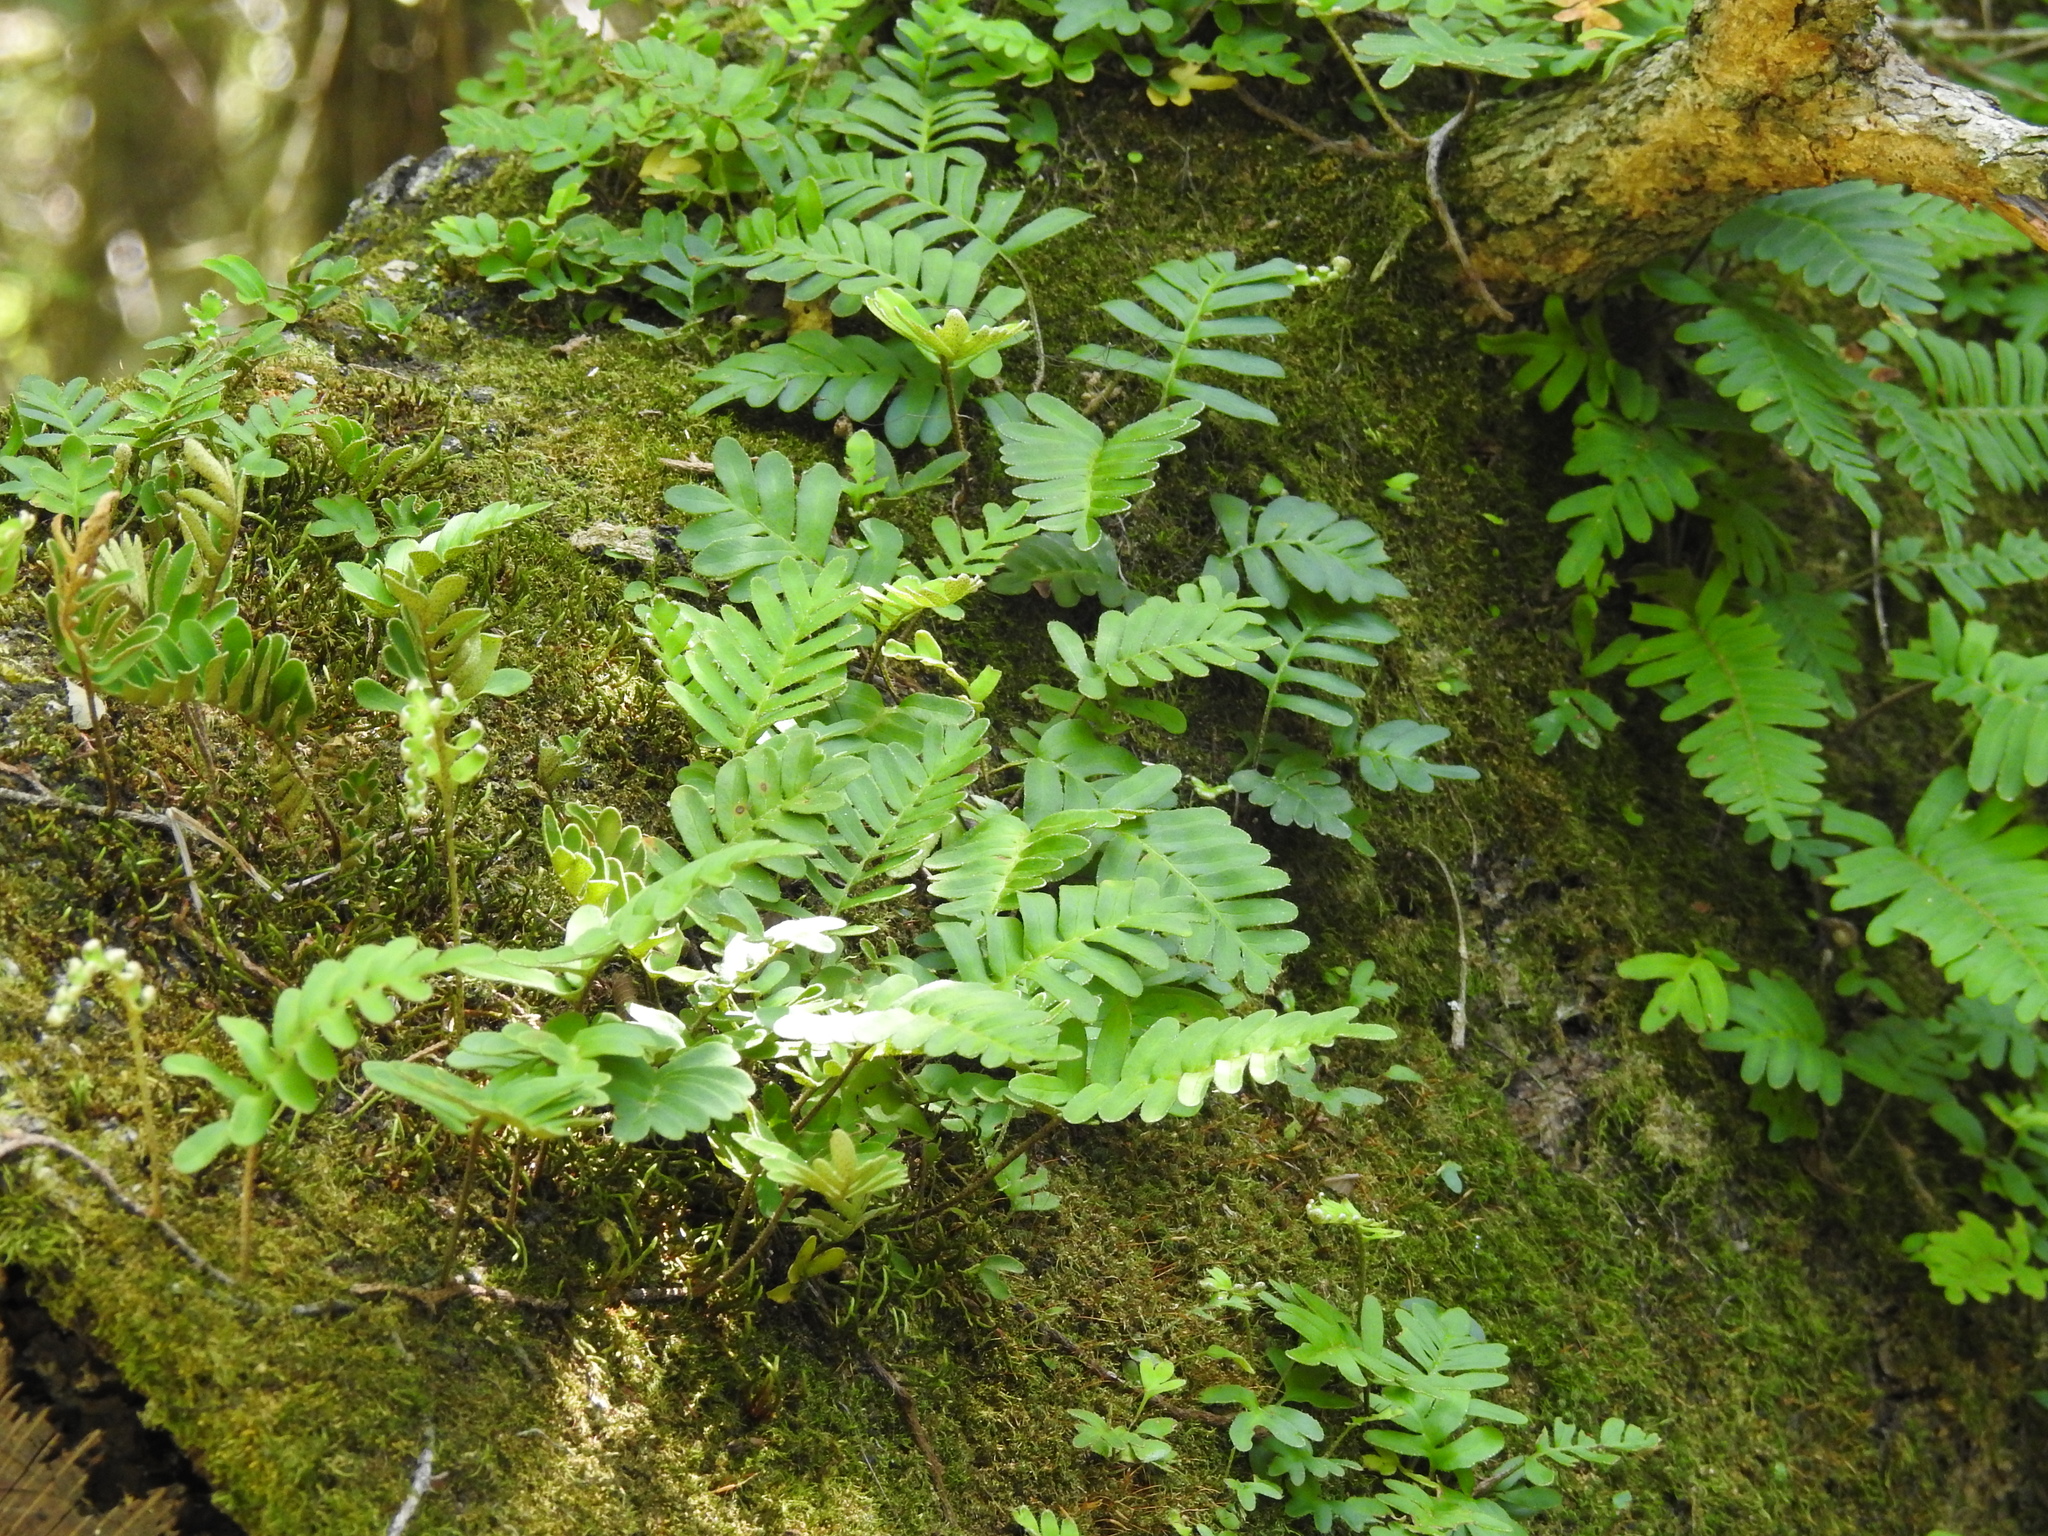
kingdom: Plantae
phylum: Tracheophyta
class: Polypodiopsida
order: Polypodiales
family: Polypodiaceae
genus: Pleopeltis
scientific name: Pleopeltis michauxiana
